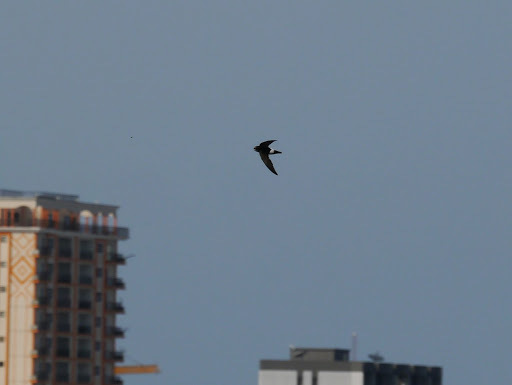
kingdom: Animalia
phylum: Chordata
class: Aves
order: Apodiformes
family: Apodidae
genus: Apus
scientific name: Apus affinis
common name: Little swift
